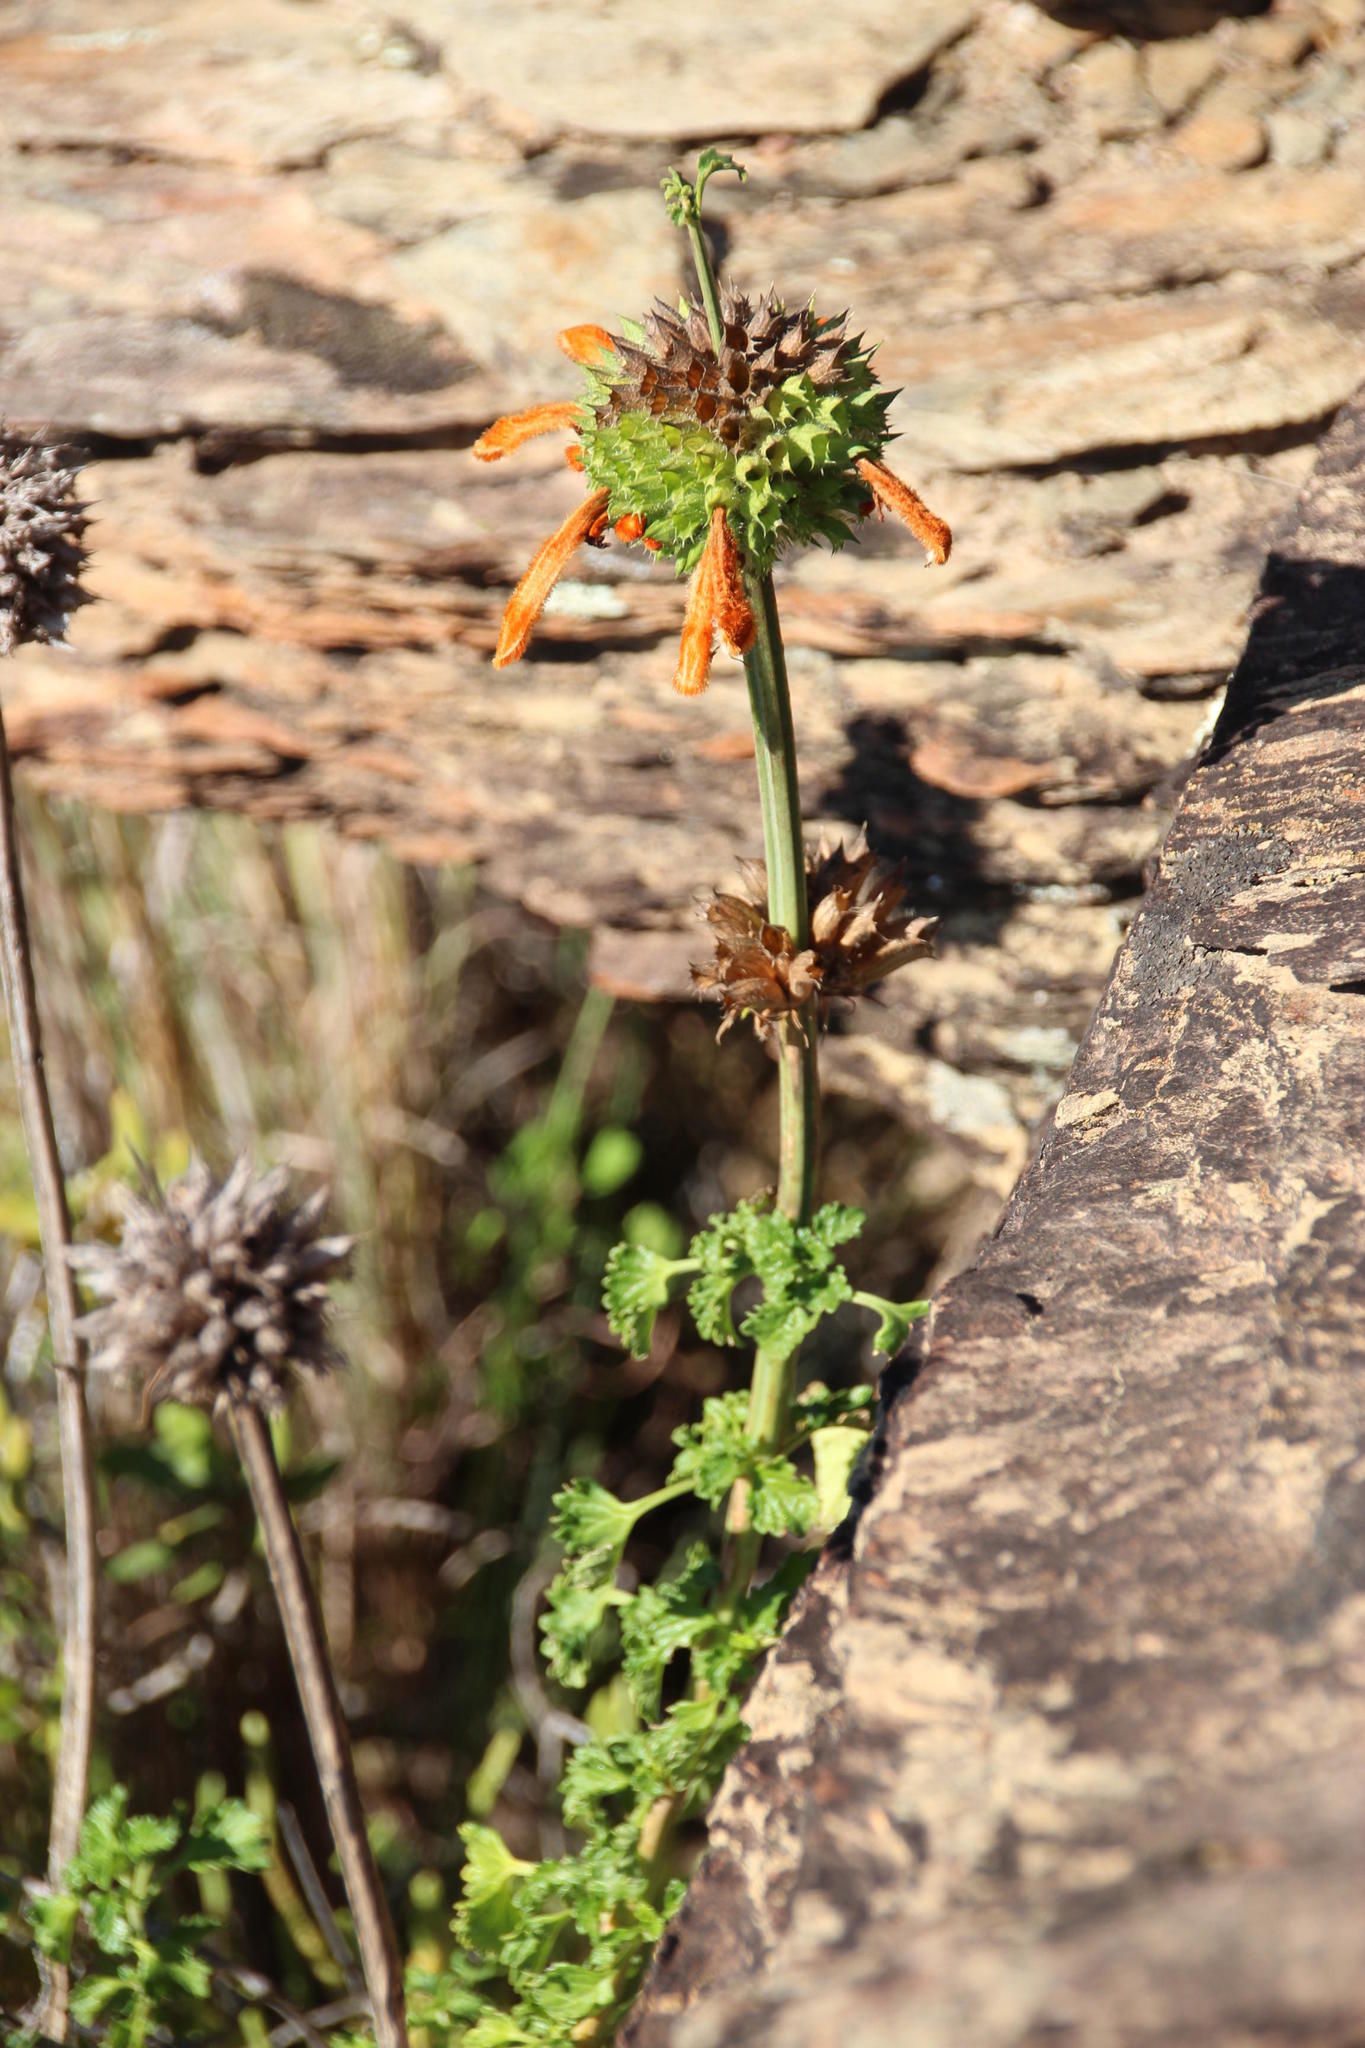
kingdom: Plantae
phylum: Tracheophyta
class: Magnoliopsida
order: Lamiales
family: Lamiaceae
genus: Leonotis
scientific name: Leonotis ocymifolia
